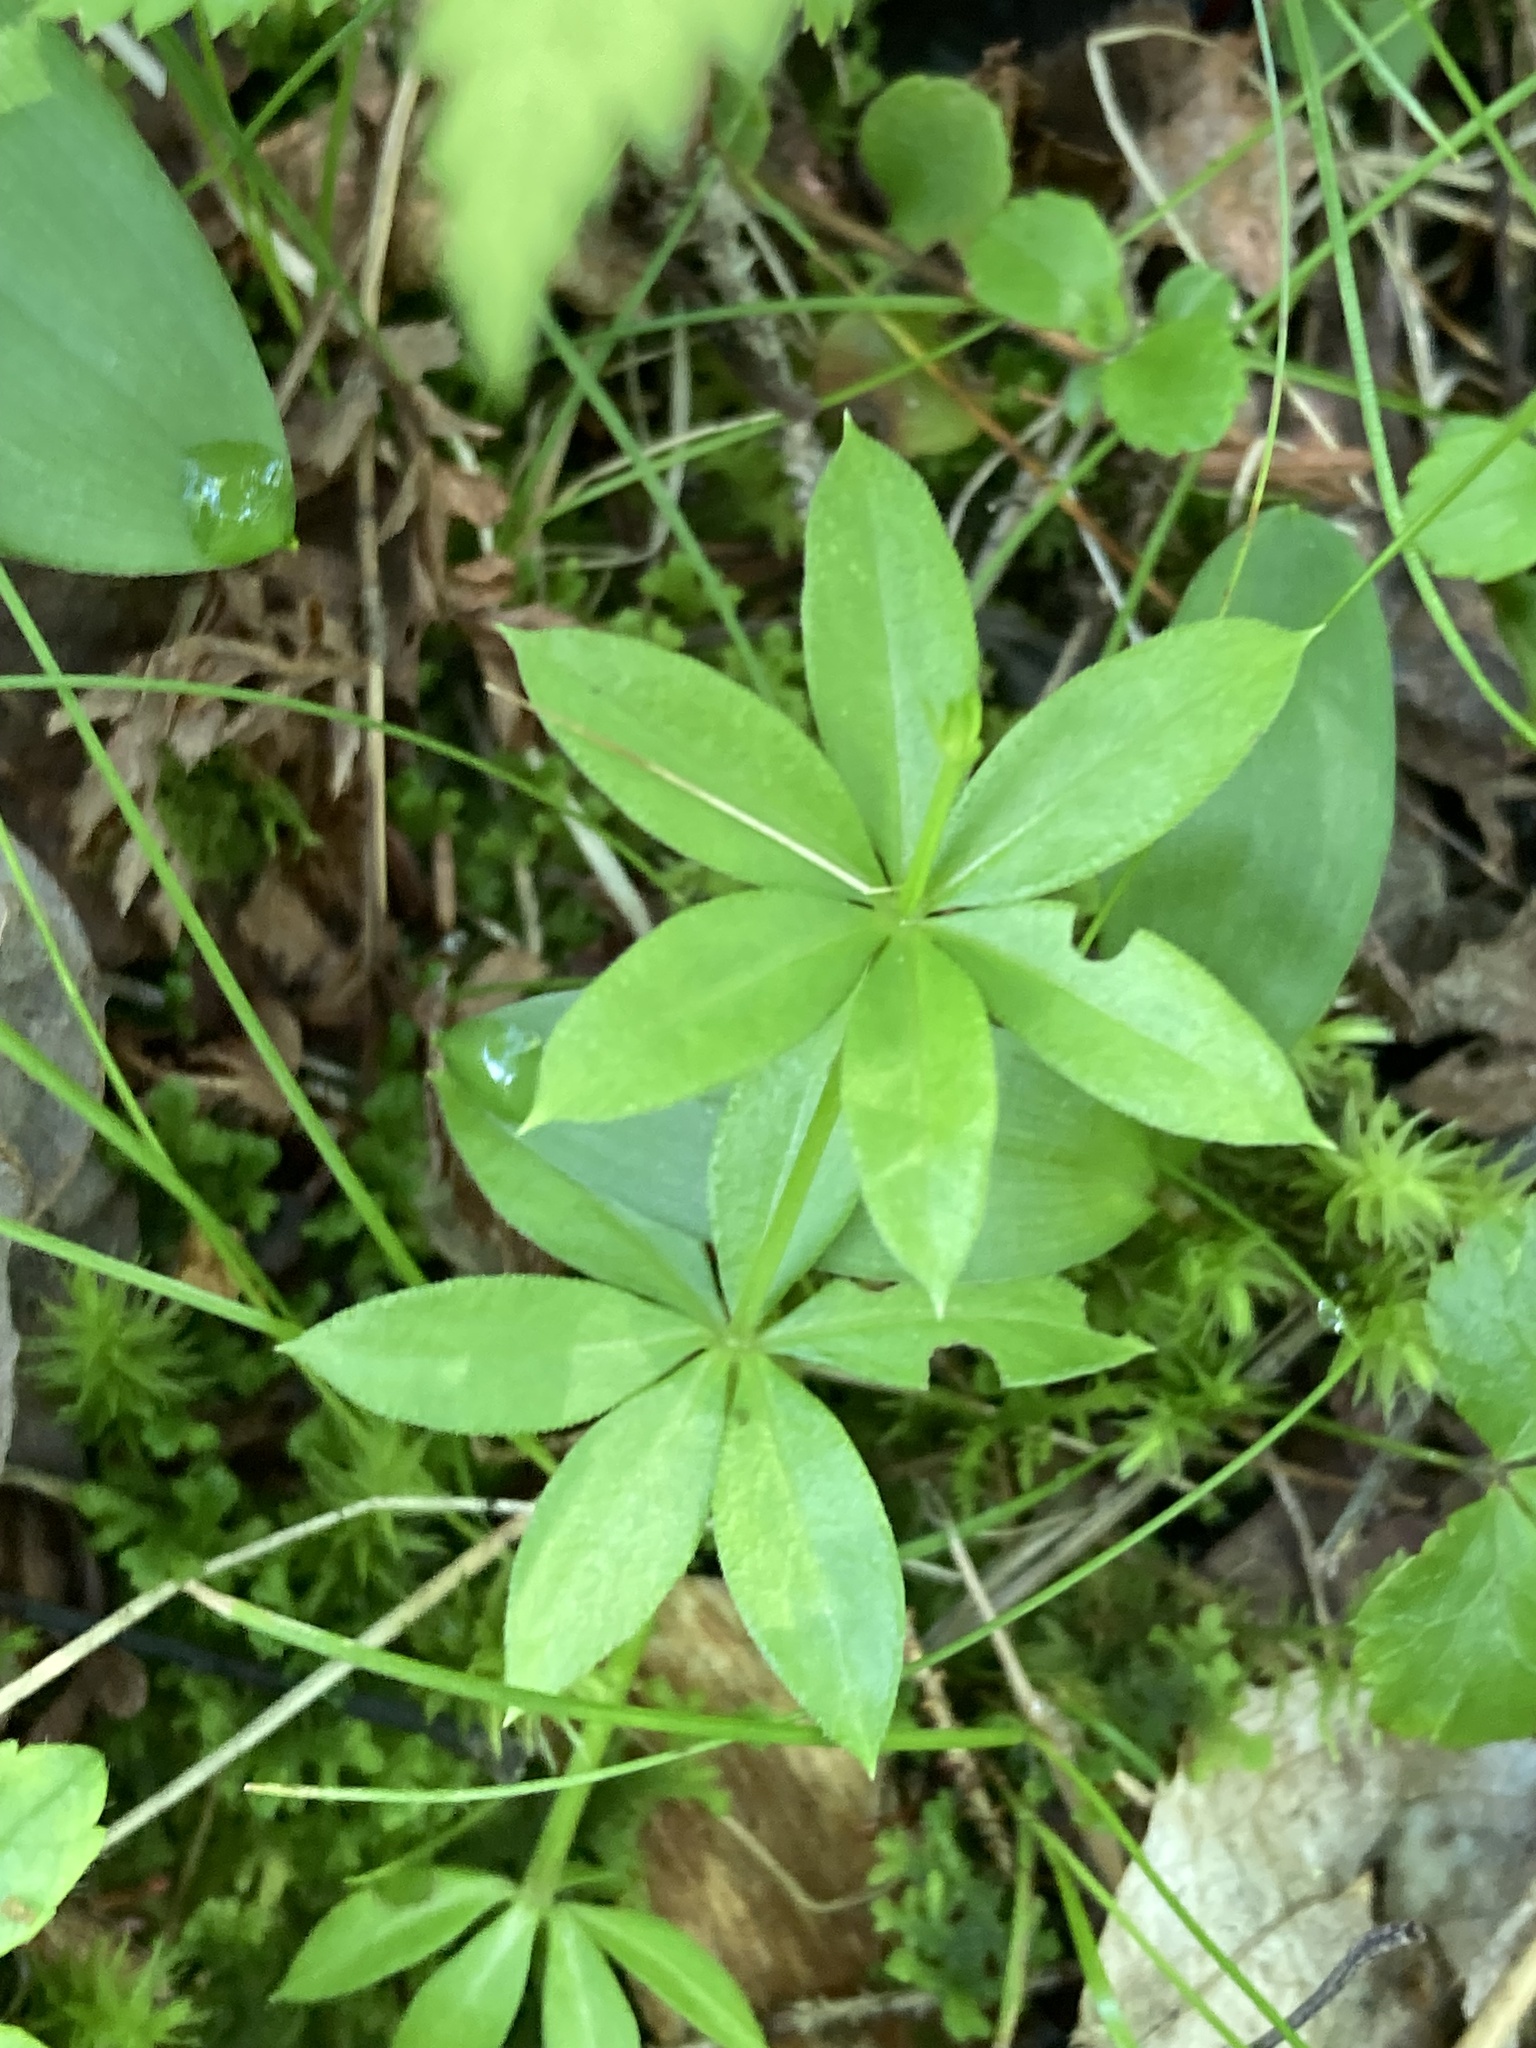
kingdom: Plantae
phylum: Tracheophyta
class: Magnoliopsida
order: Gentianales
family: Rubiaceae
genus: Galium
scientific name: Galium triflorum
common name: Fragrant bedstraw
